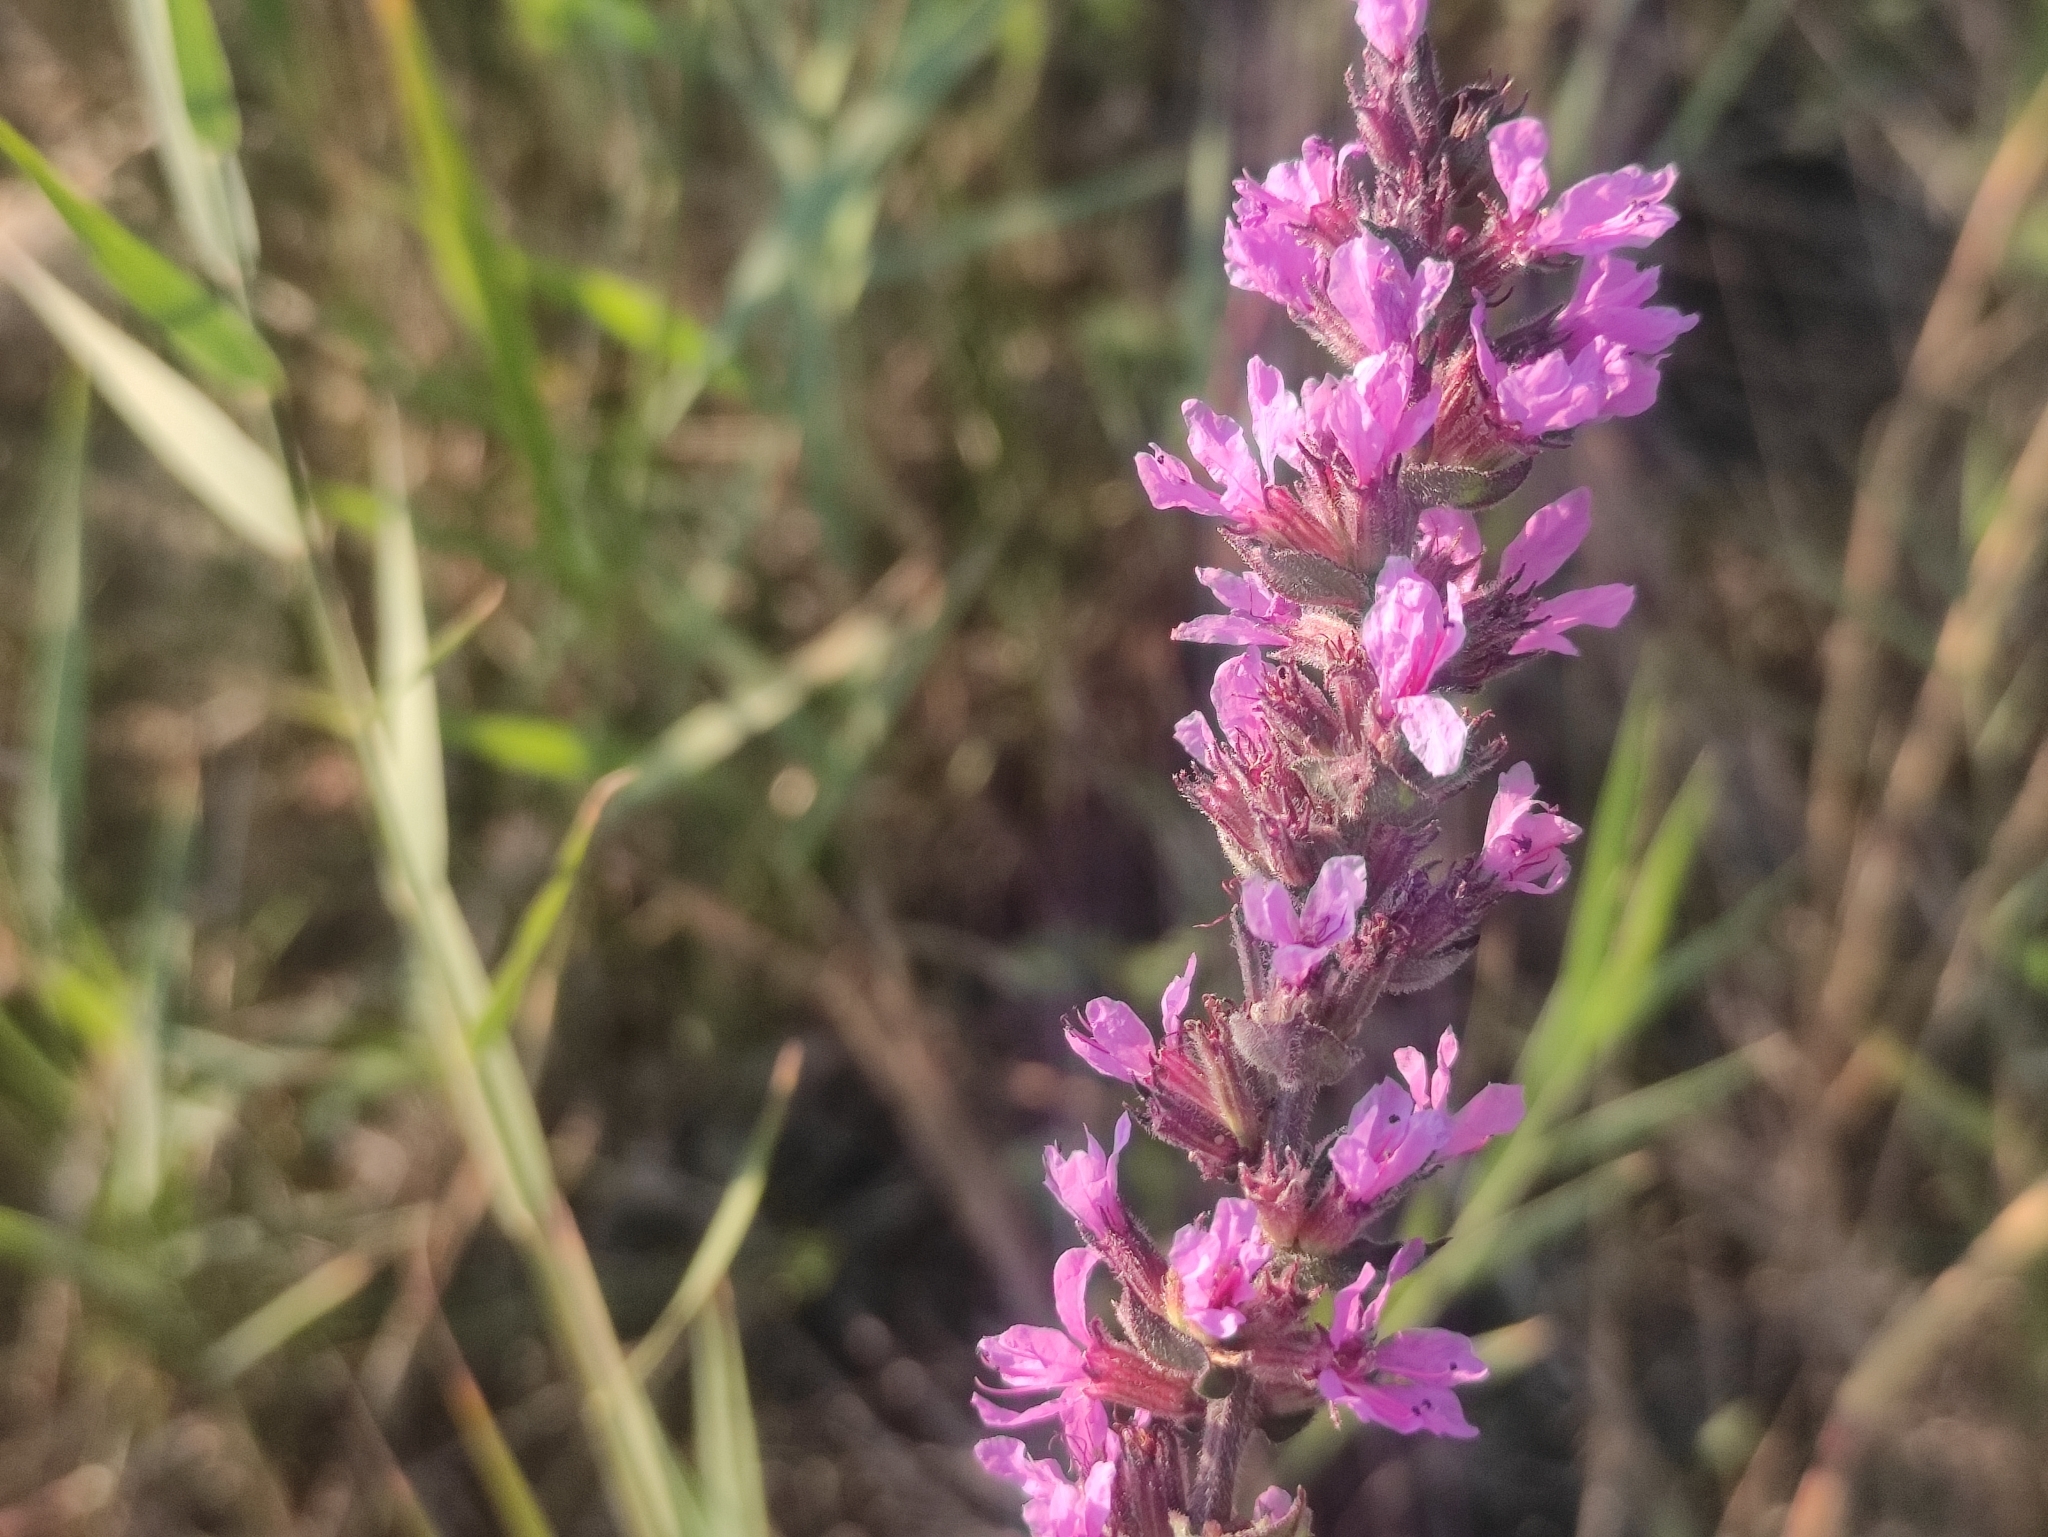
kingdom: Plantae
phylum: Tracheophyta
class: Magnoliopsida
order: Myrtales
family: Lythraceae
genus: Lythrum
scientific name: Lythrum salicaria
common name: Purple loosestrife
